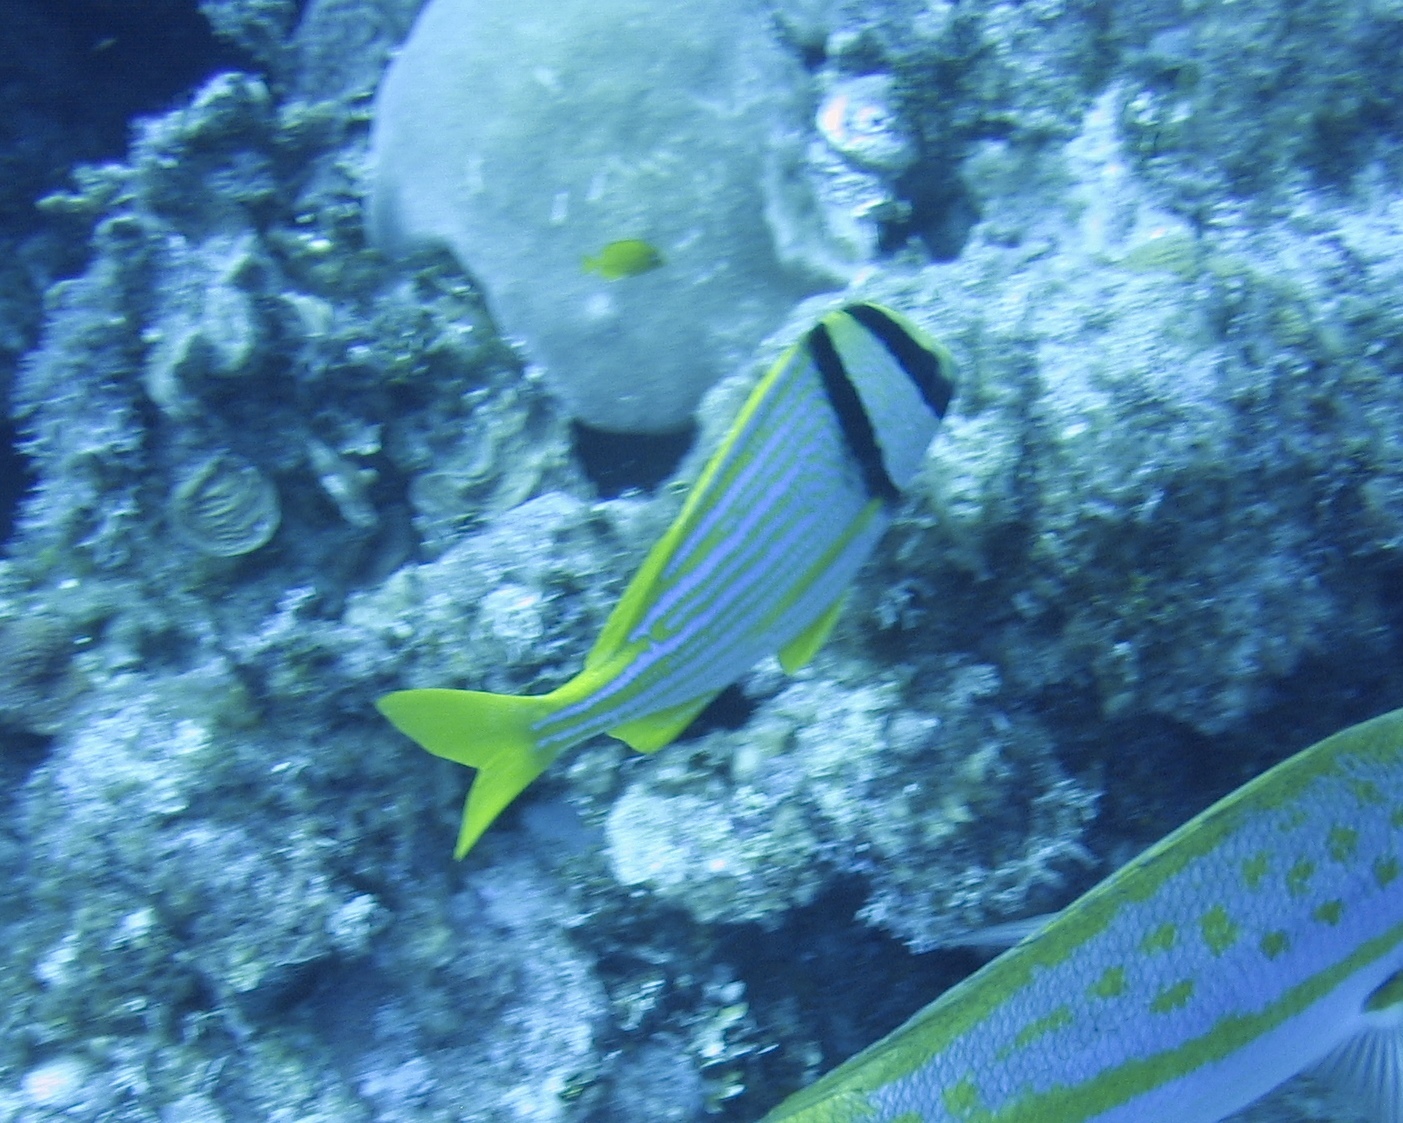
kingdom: Animalia
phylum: Chordata
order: Perciformes
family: Haemulidae
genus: Anisotremus
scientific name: Anisotremus virginicus
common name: Porkfish
